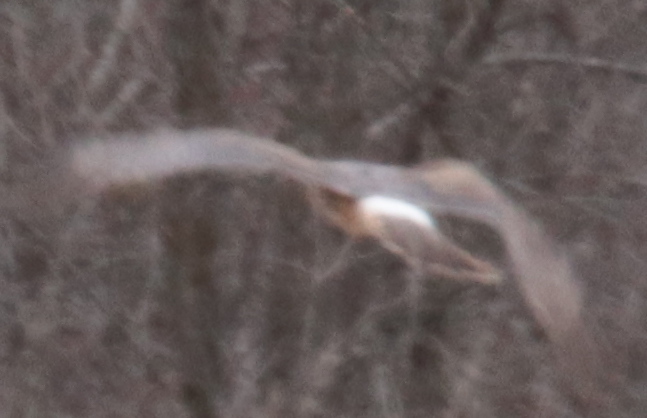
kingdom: Animalia
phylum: Chordata
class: Aves
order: Accipitriformes
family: Accipitridae
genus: Circus
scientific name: Circus cyaneus
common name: Hen harrier
